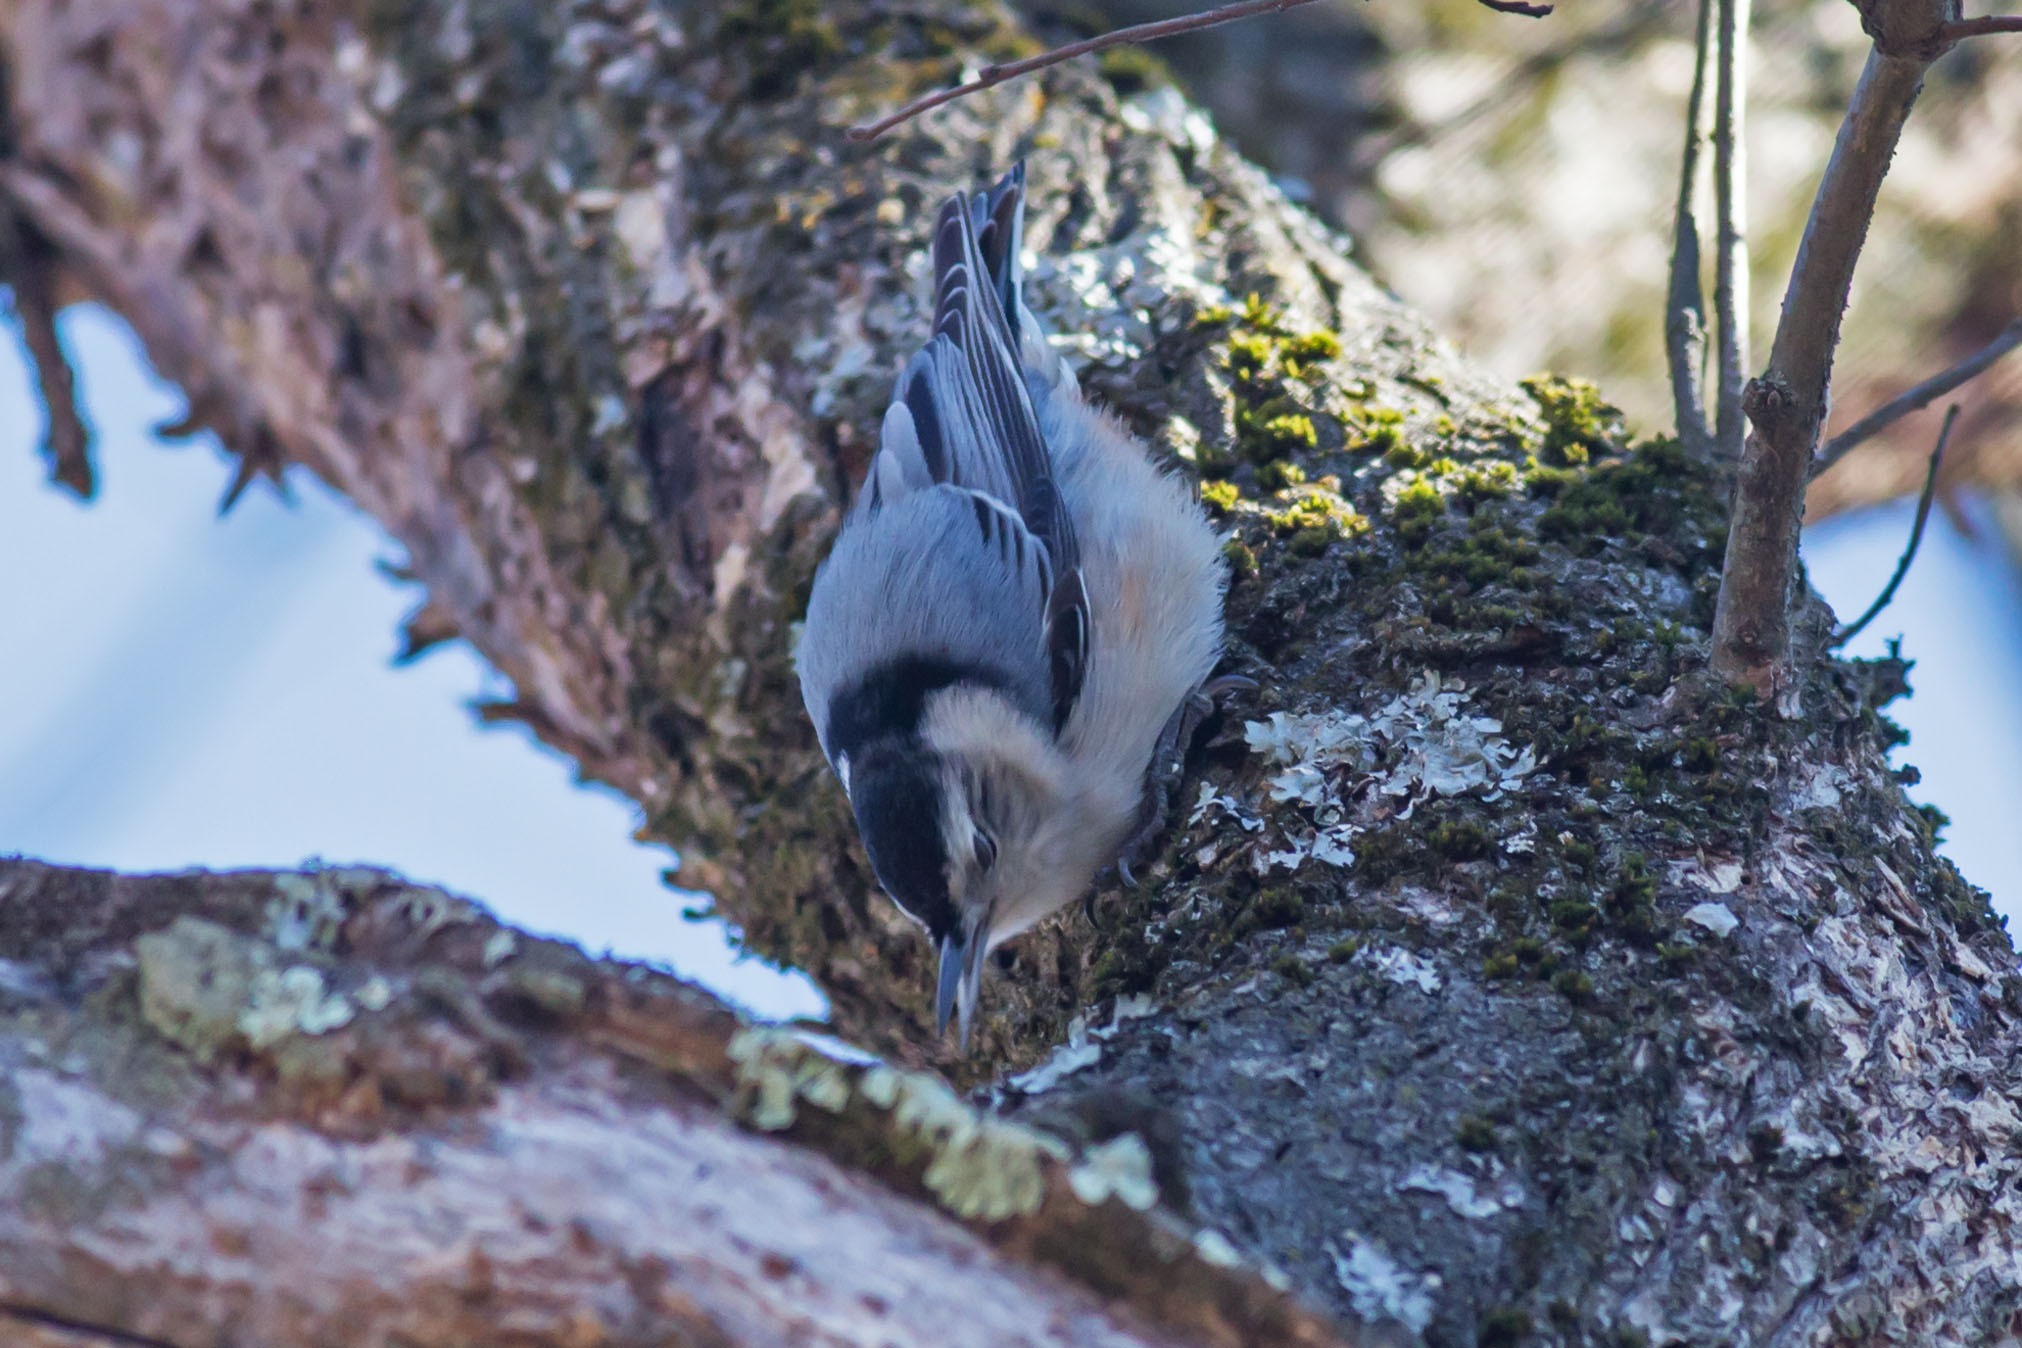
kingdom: Animalia
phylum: Chordata
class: Aves
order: Passeriformes
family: Sittidae
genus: Sitta
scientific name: Sitta carolinensis
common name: White-breasted nuthatch
